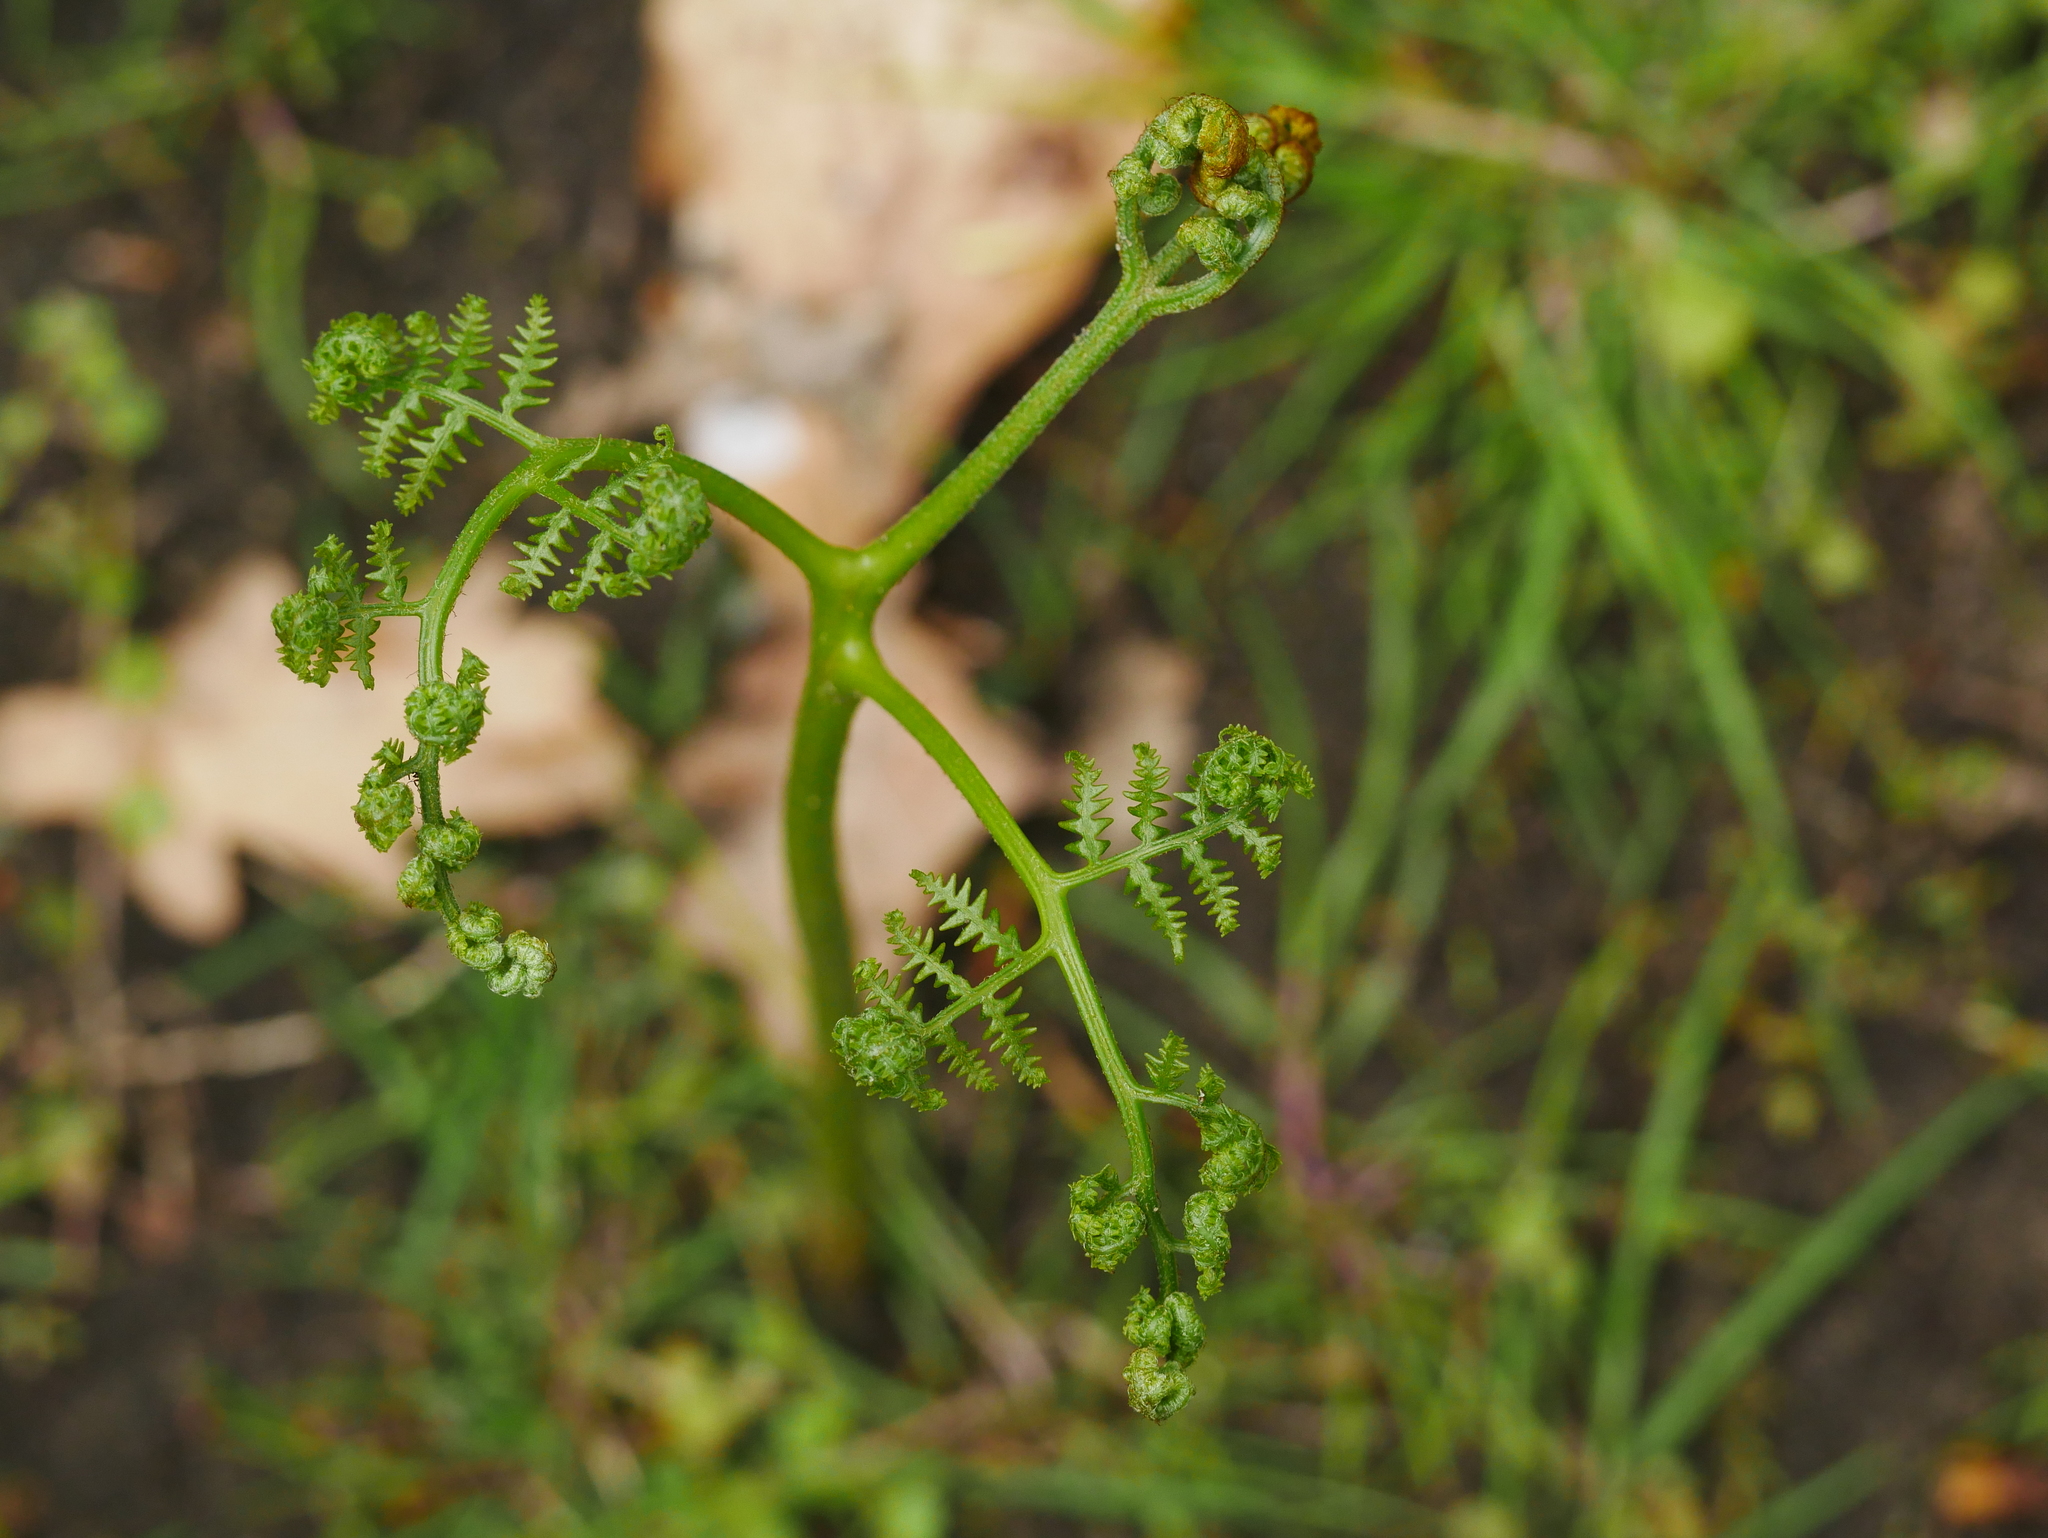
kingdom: Plantae
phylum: Tracheophyta
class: Polypodiopsida
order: Polypodiales
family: Dennstaedtiaceae
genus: Pteridium
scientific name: Pteridium aquilinum
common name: Bracken
